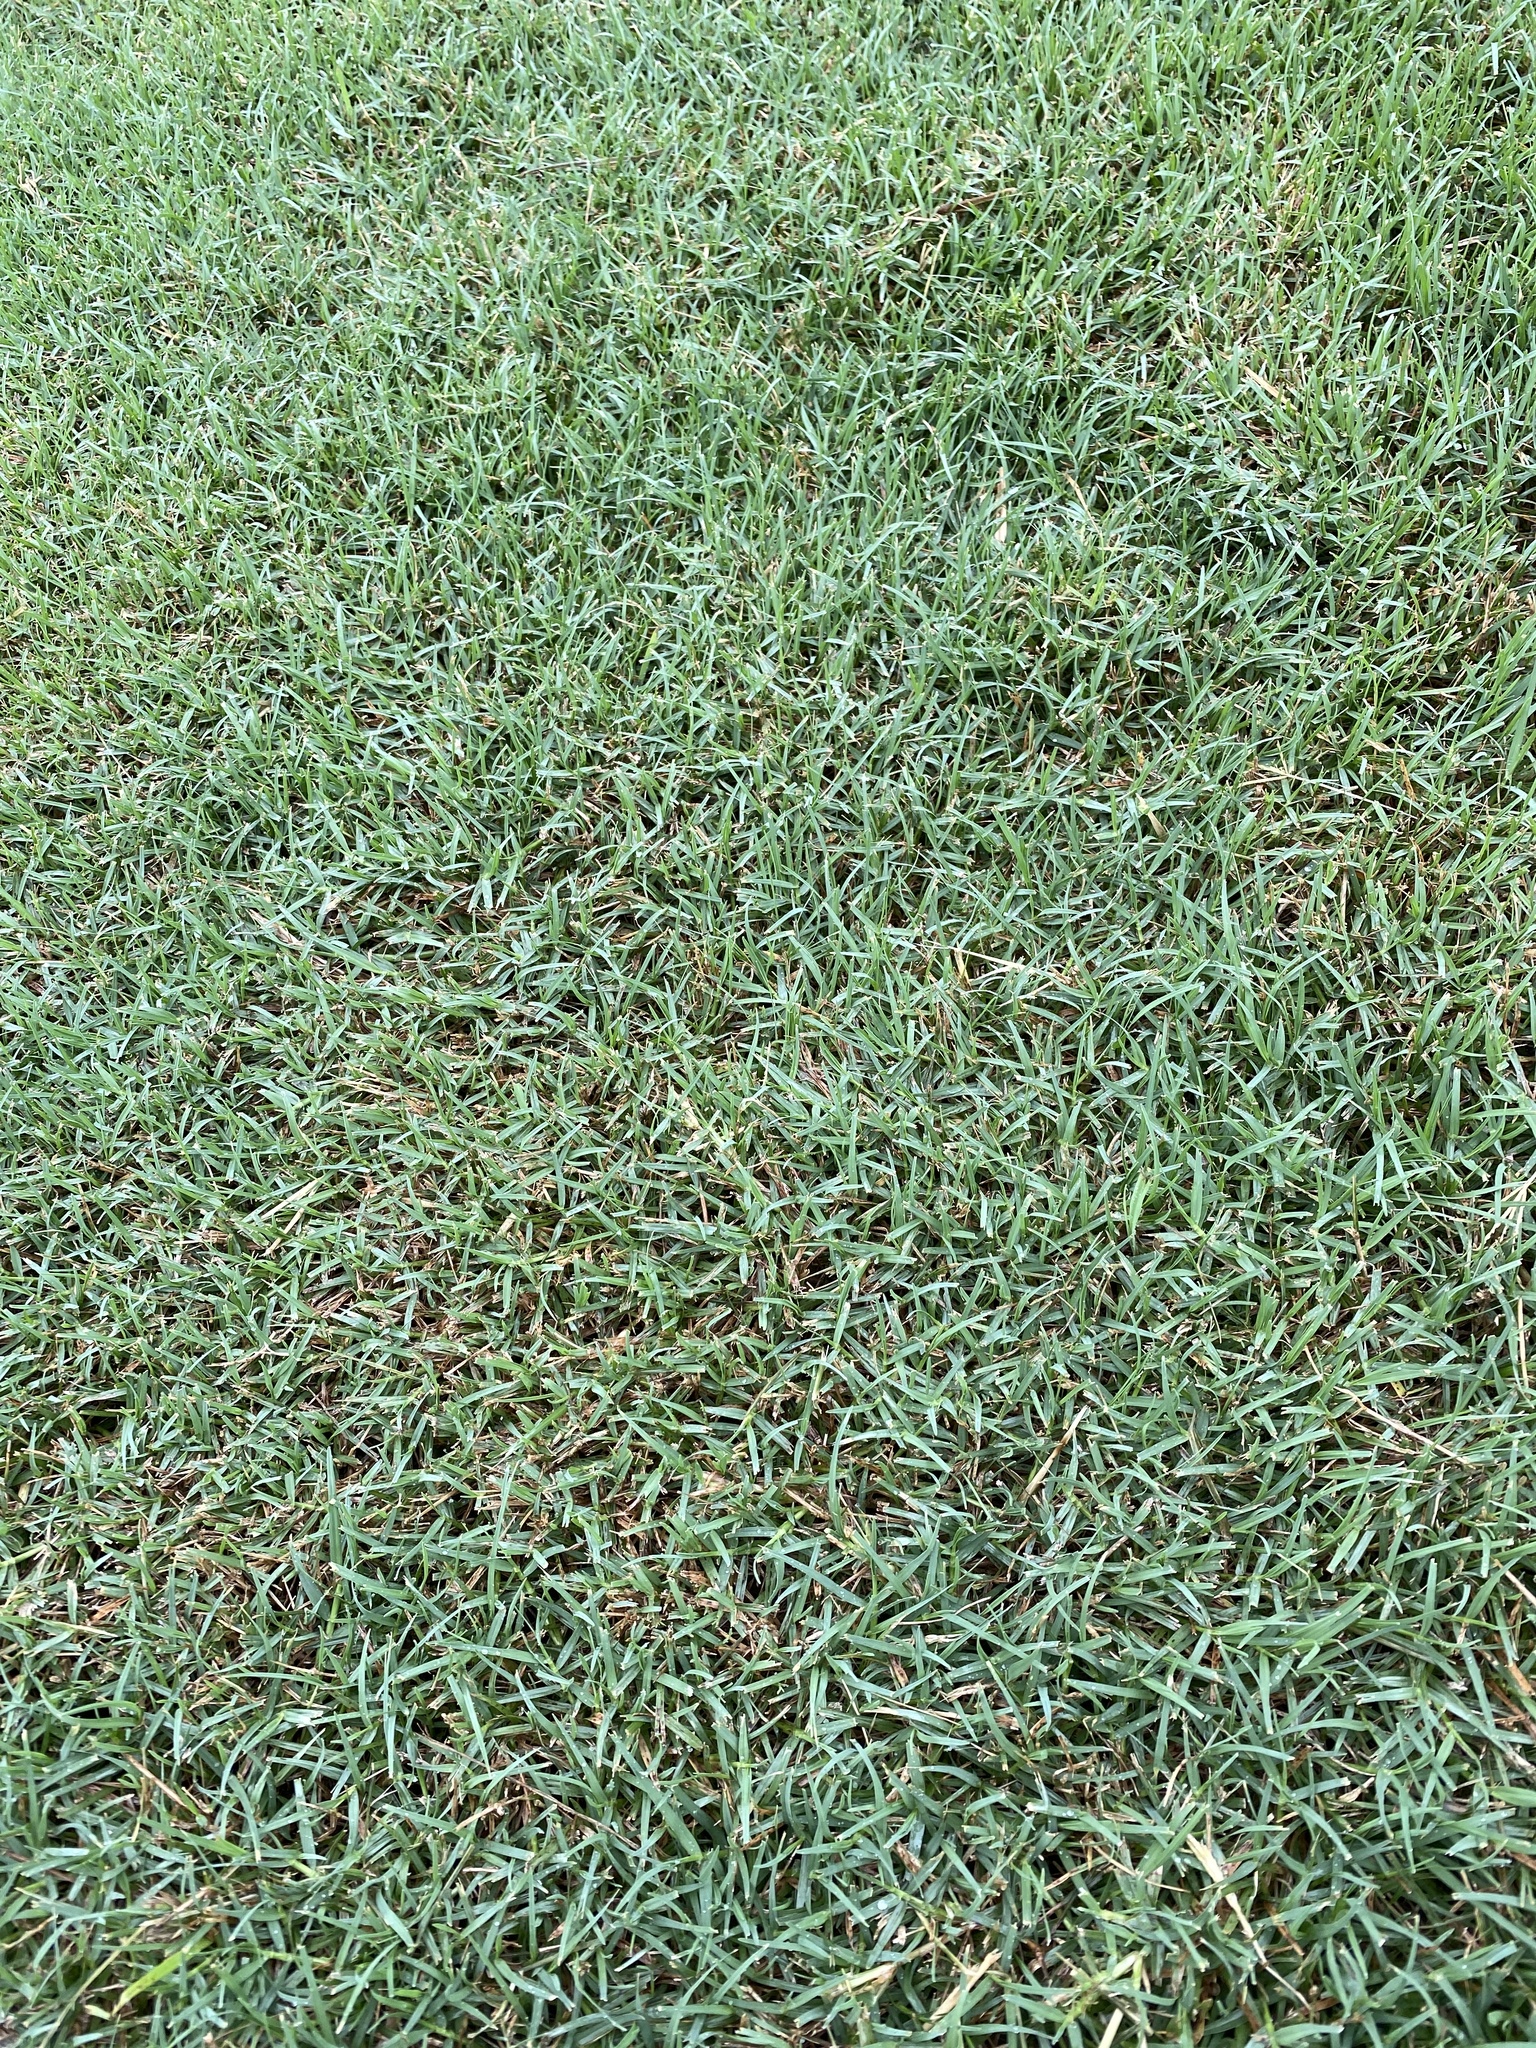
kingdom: Plantae
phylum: Tracheophyta
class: Liliopsida
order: Poales
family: Poaceae
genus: Cynodon
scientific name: Cynodon dactylon
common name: Bermuda grass
